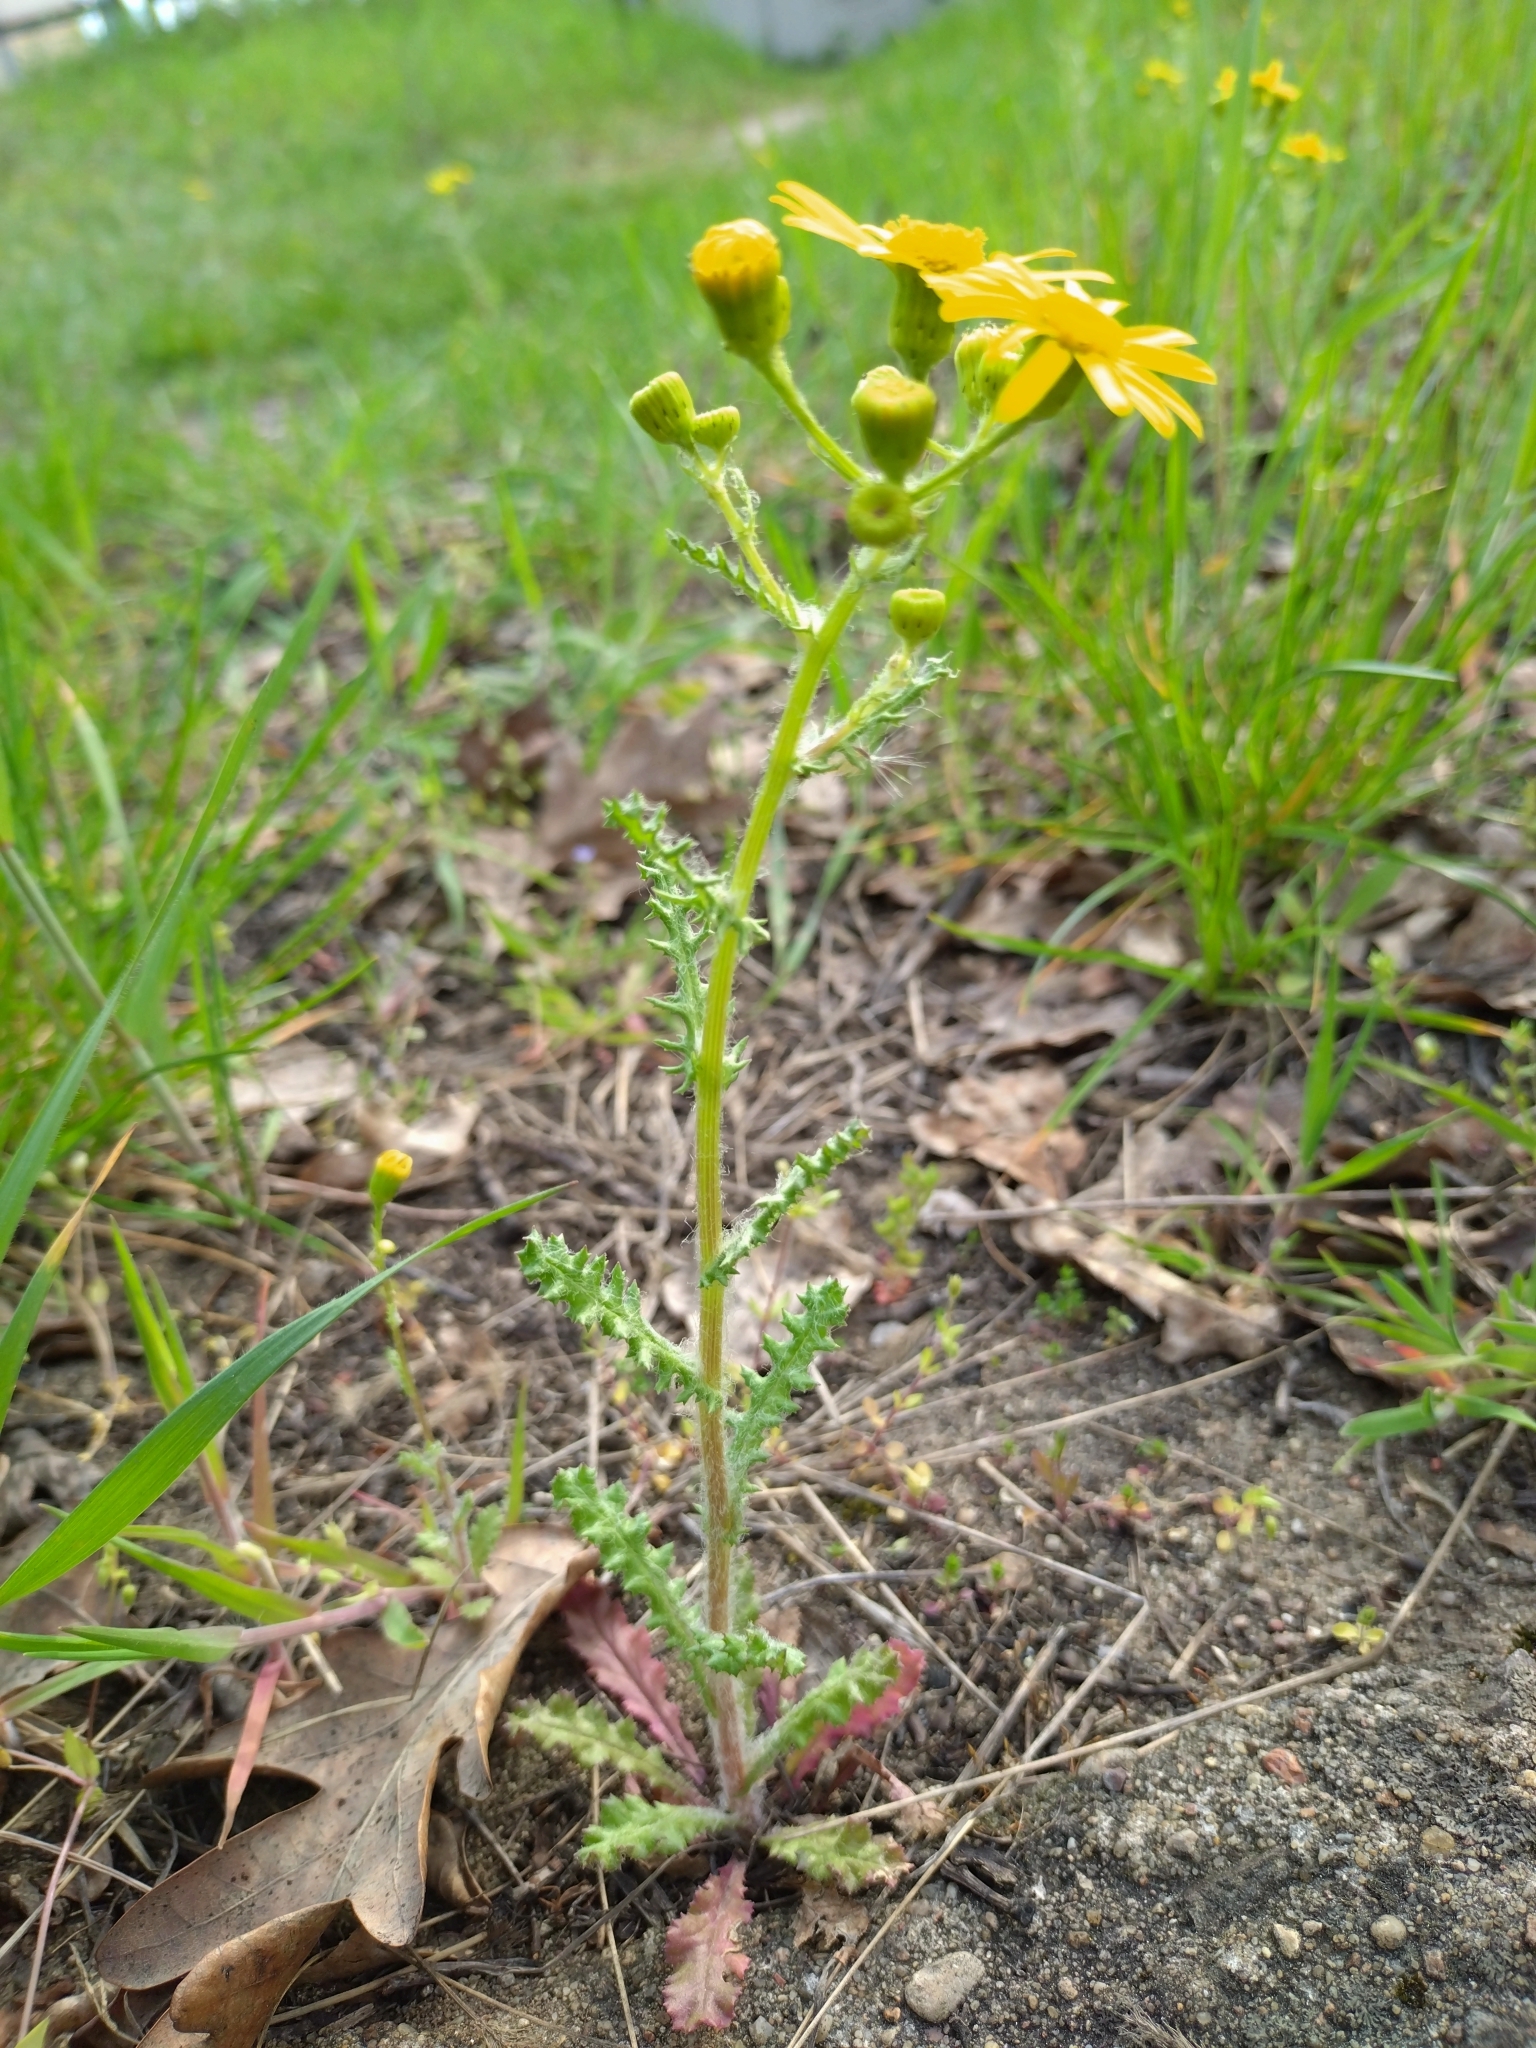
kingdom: Plantae
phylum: Tracheophyta
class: Magnoliopsida
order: Asterales
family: Asteraceae
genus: Senecio
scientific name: Senecio vernalis
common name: Eastern groundsel
